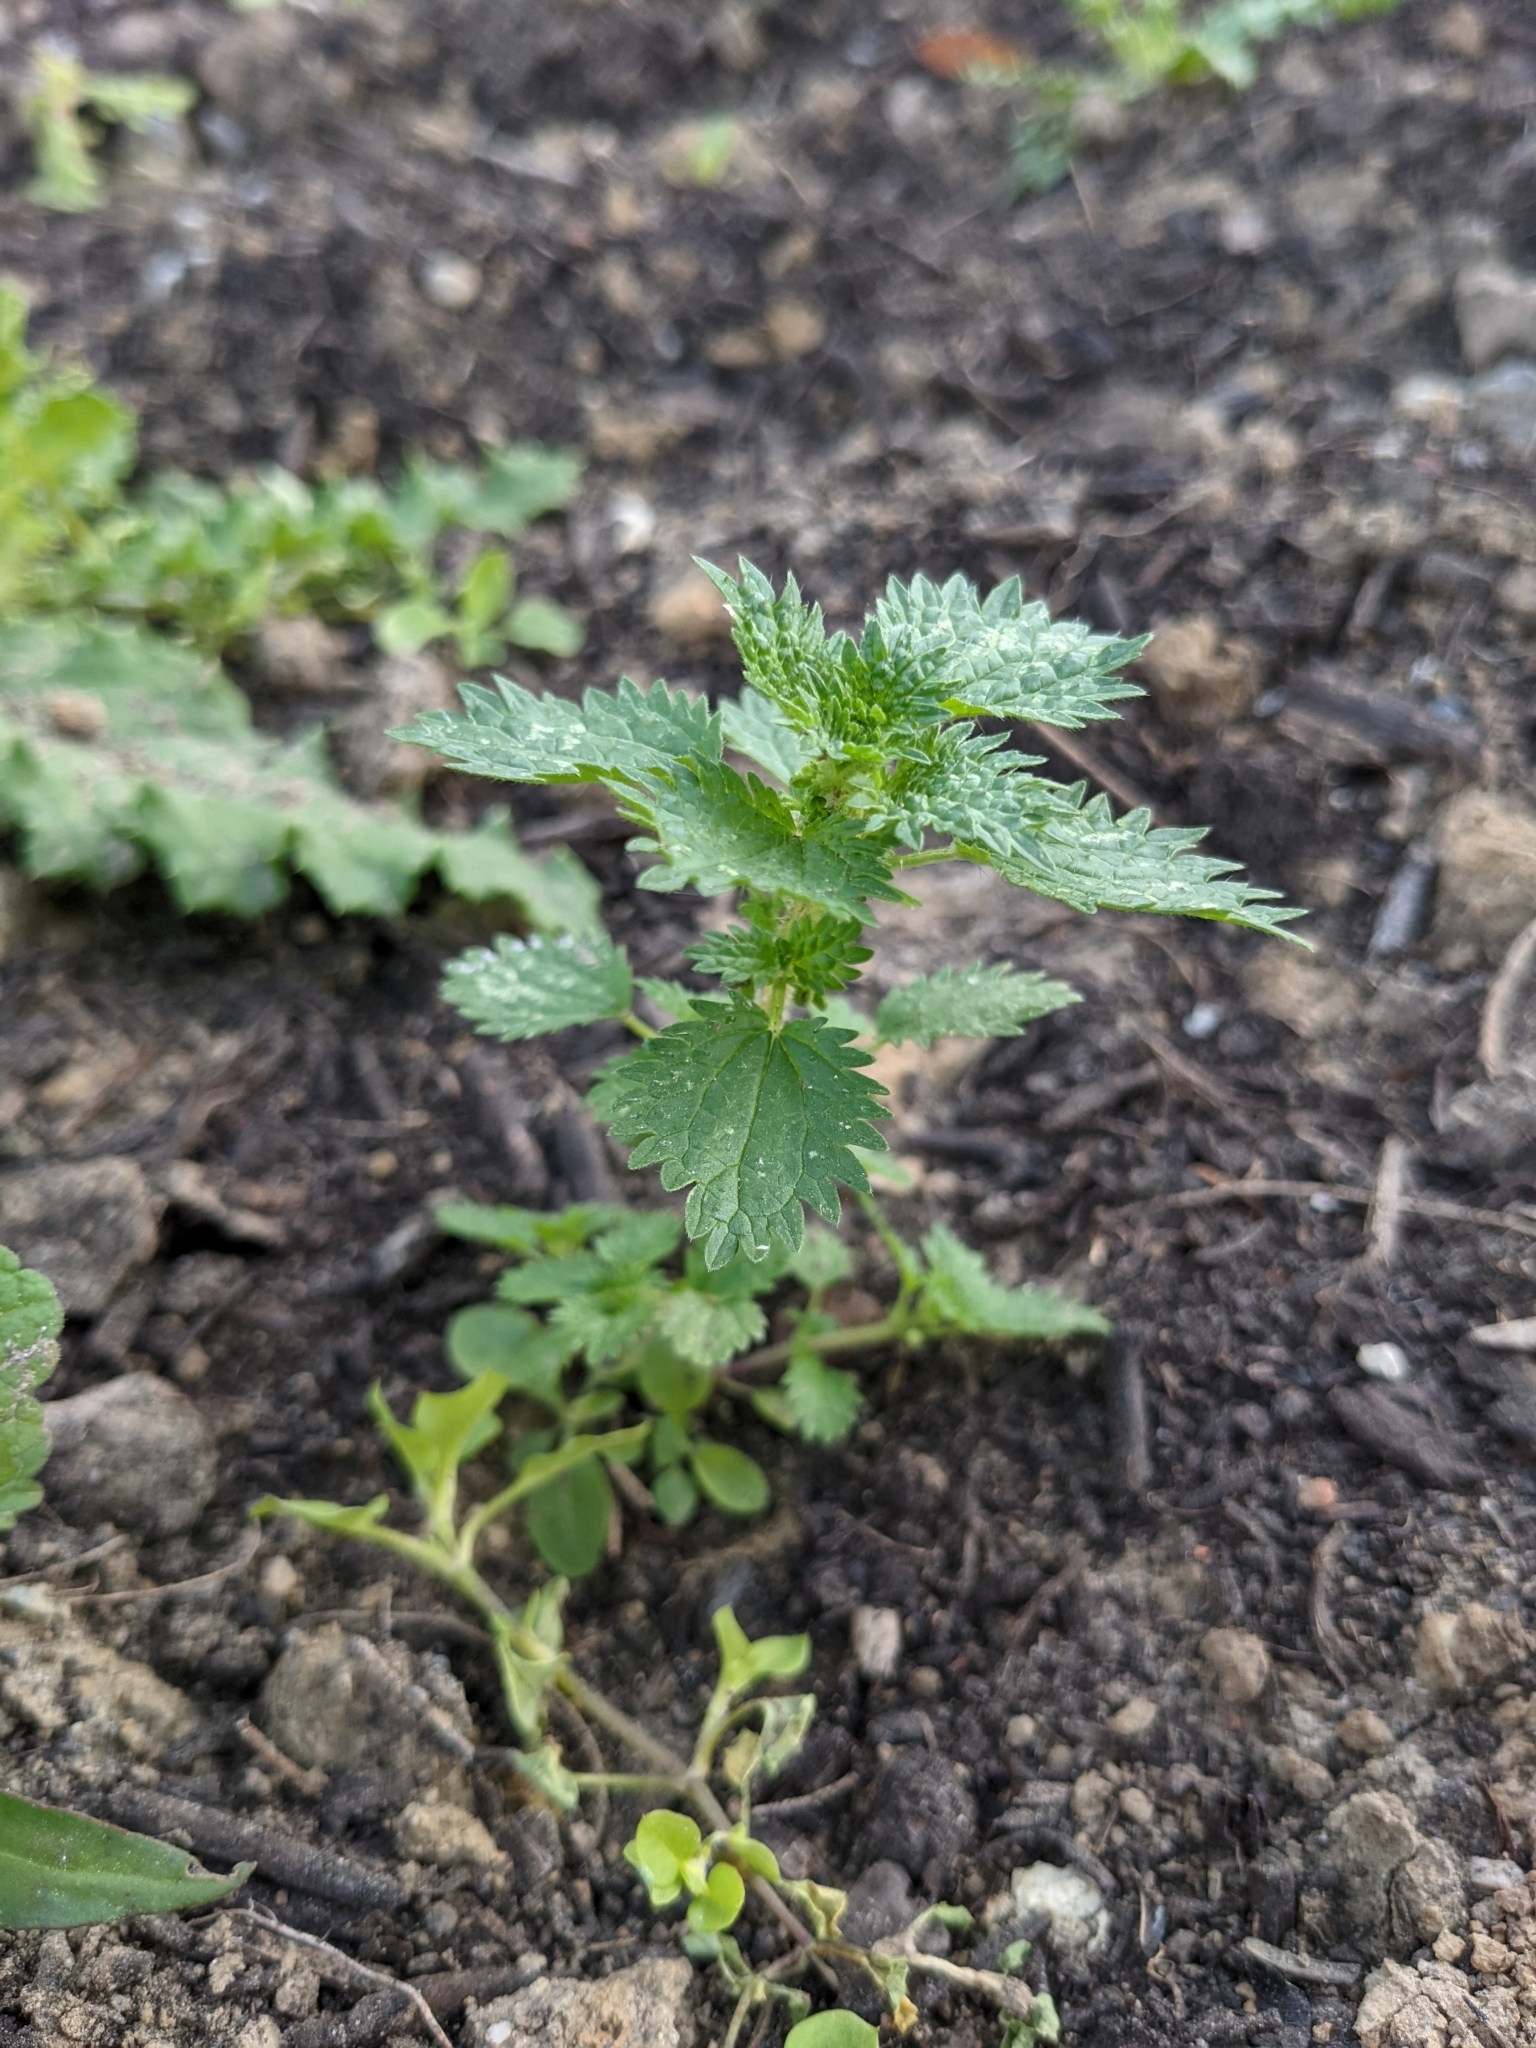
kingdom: Plantae
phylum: Tracheophyta
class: Magnoliopsida
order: Rosales
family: Urticaceae
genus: Urtica
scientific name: Urtica urens
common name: Dwarf nettle
